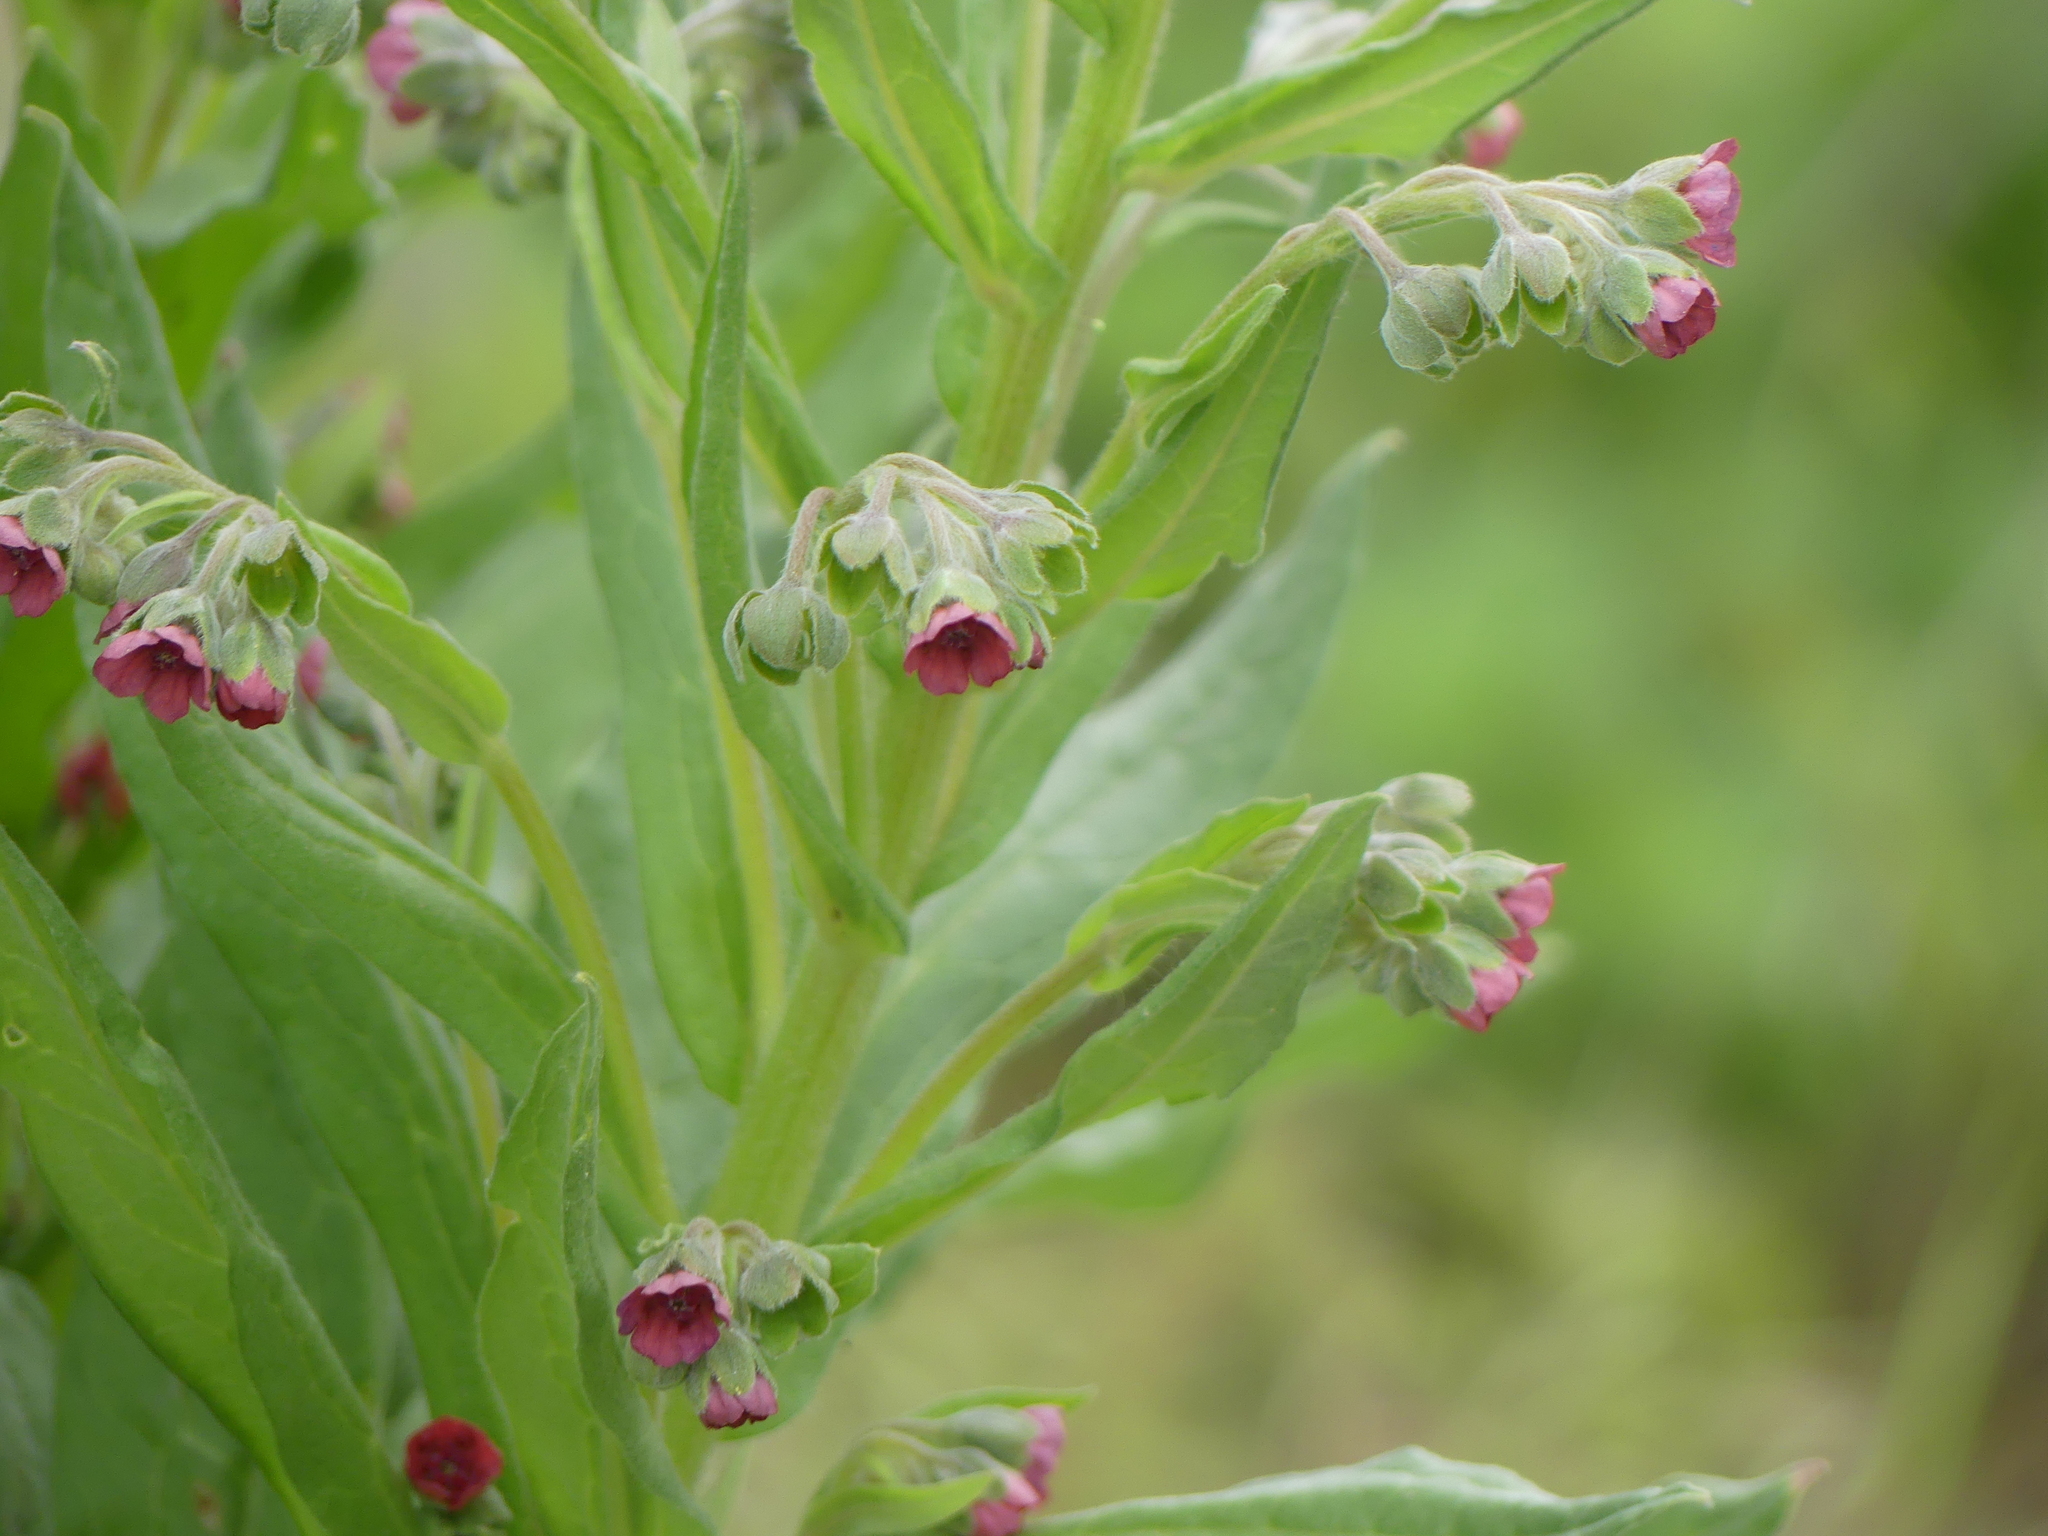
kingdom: Plantae
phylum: Tracheophyta
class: Magnoliopsida
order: Boraginales
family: Boraginaceae
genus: Cynoglossum
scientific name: Cynoglossum officinale
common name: Hound's-tongue
